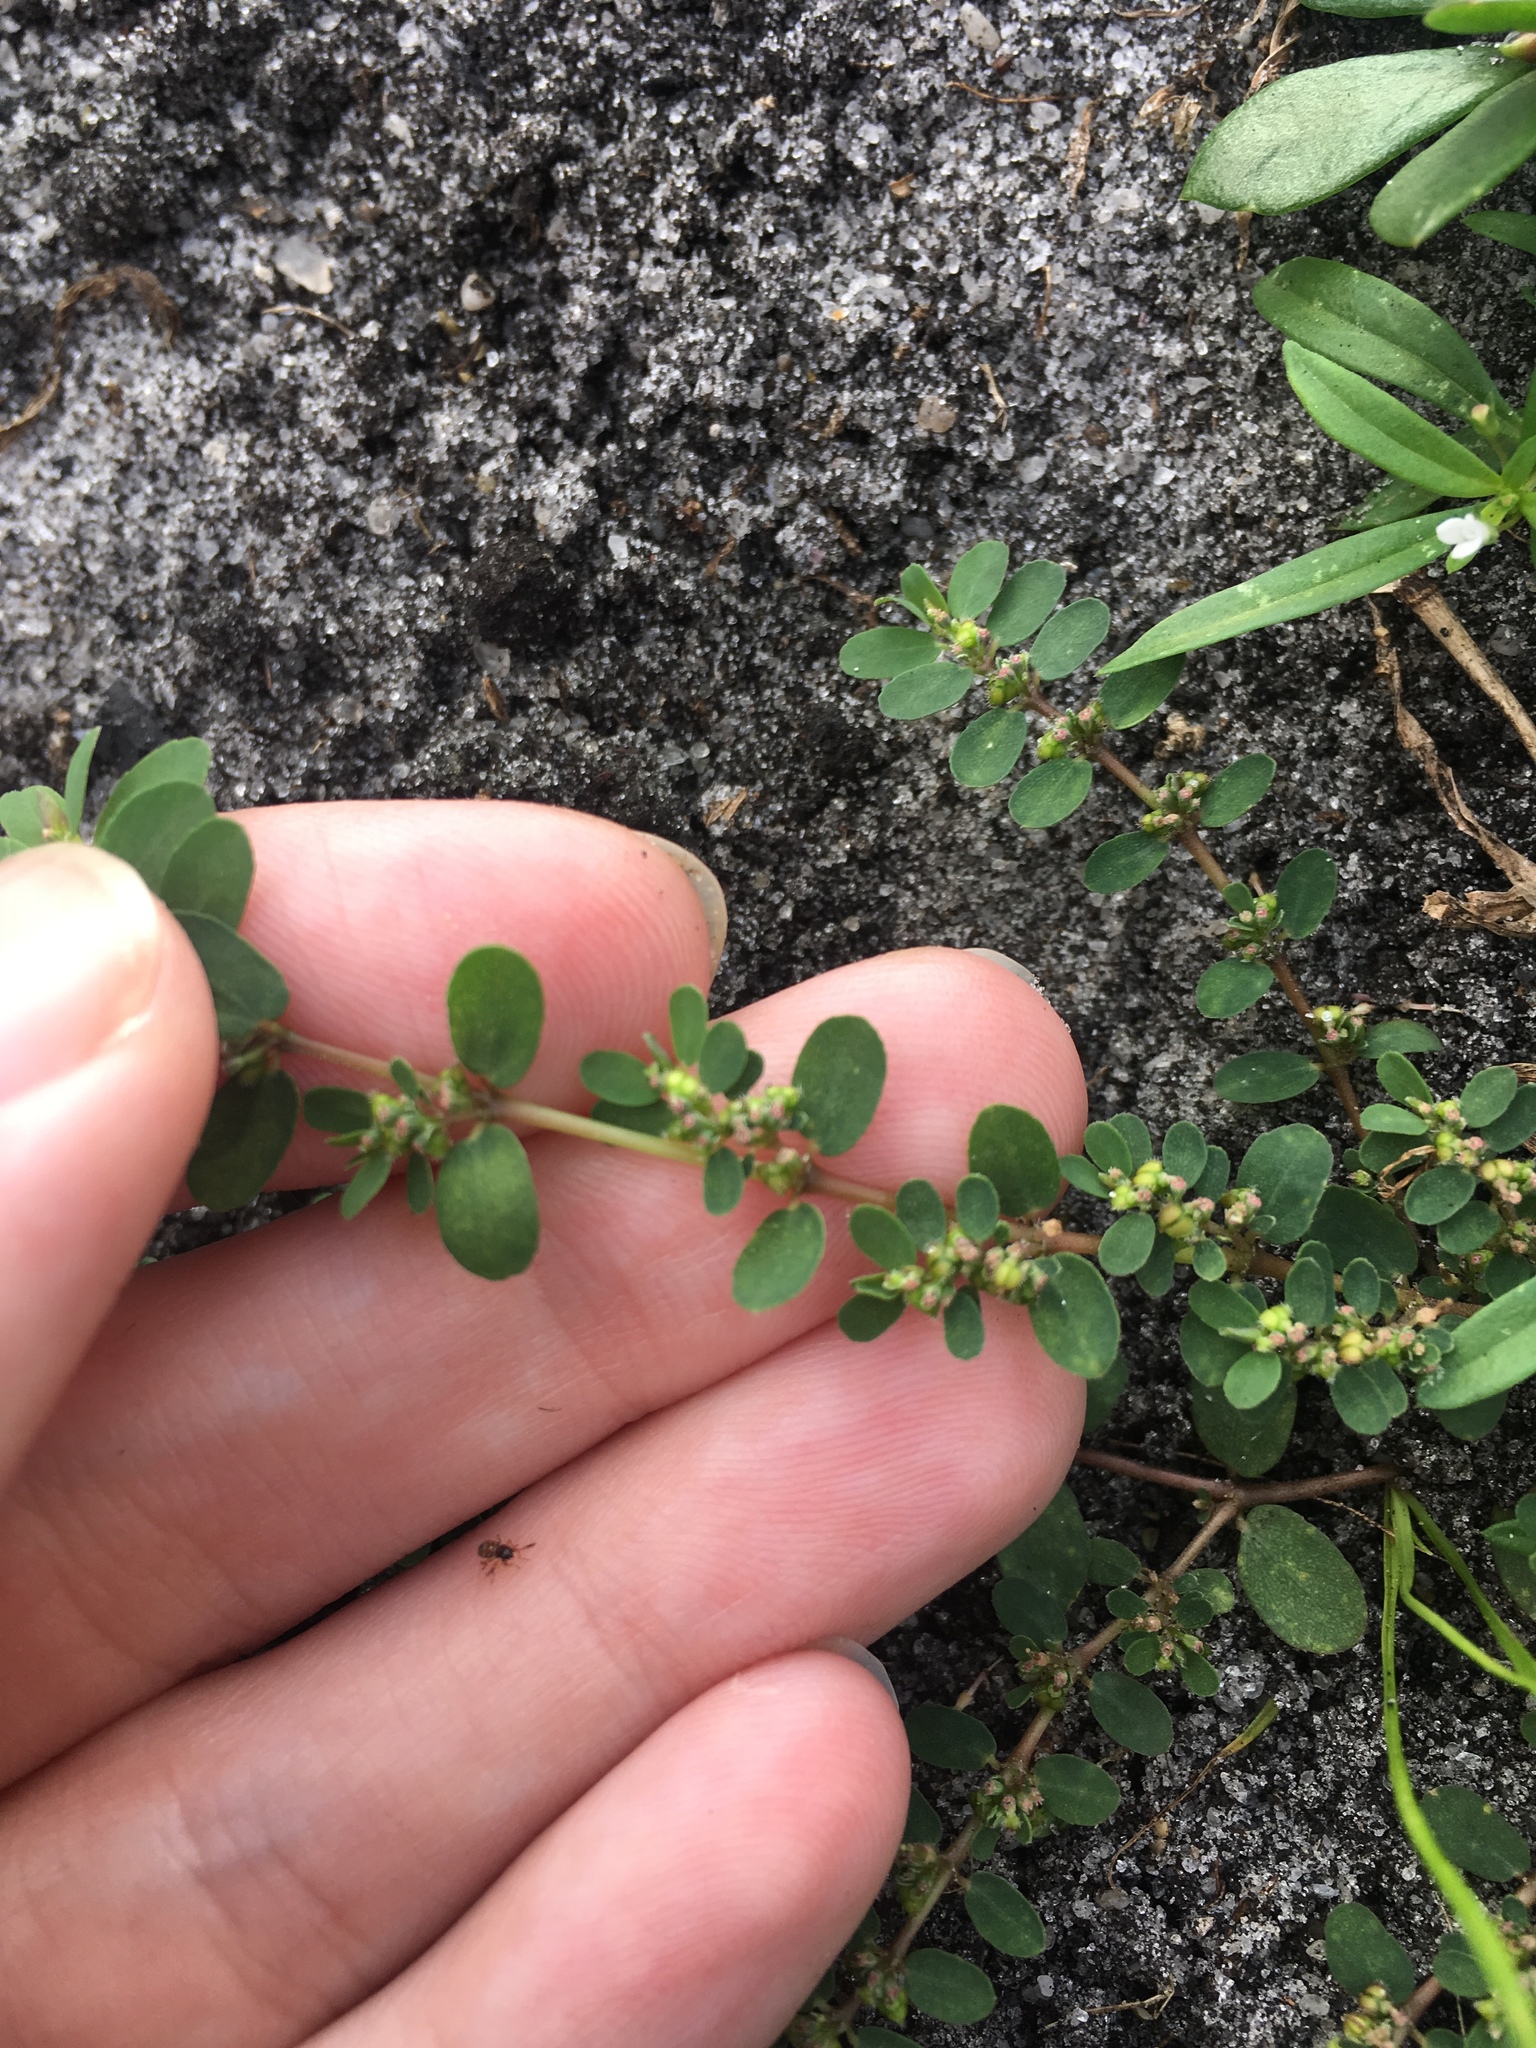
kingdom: Plantae
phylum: Tracheophyta
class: Magnoliopsida
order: Malpighiales
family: Euphorbiaceae
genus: Euphorbia
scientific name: Euphorbia prostrata
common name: Prostrate sandmat
